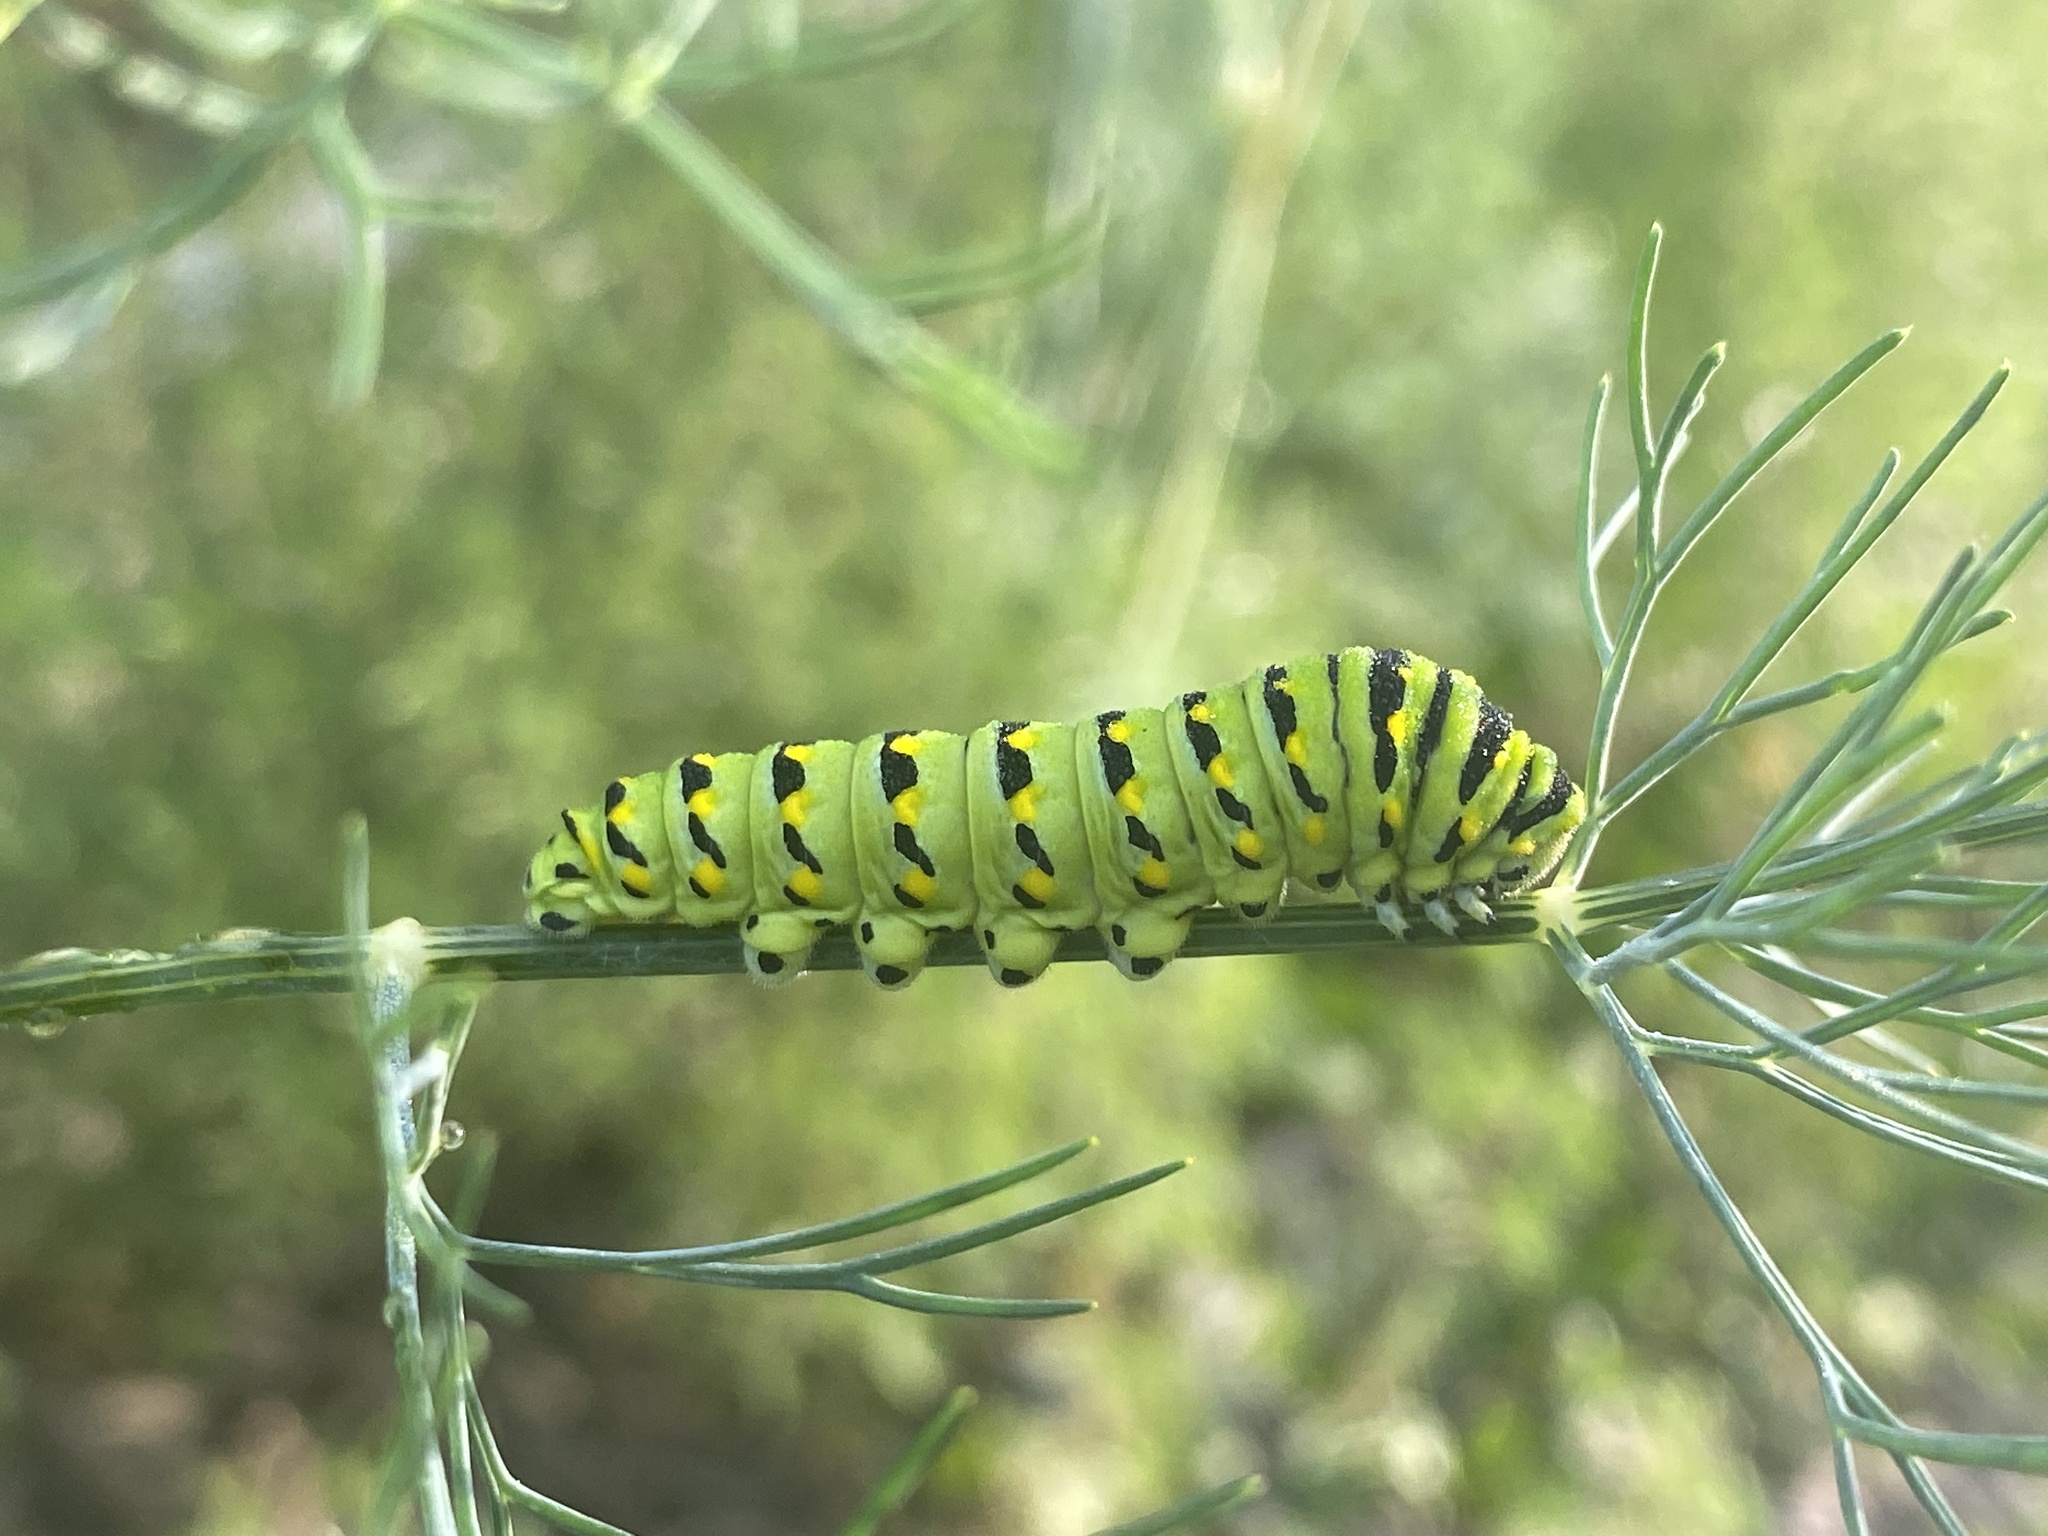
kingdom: Animalia
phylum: Arthropoda
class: Insecta
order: Lepidoptera
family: Papilionidae
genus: Papilio
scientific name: Papilio polyxenes
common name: Black swallowtail
